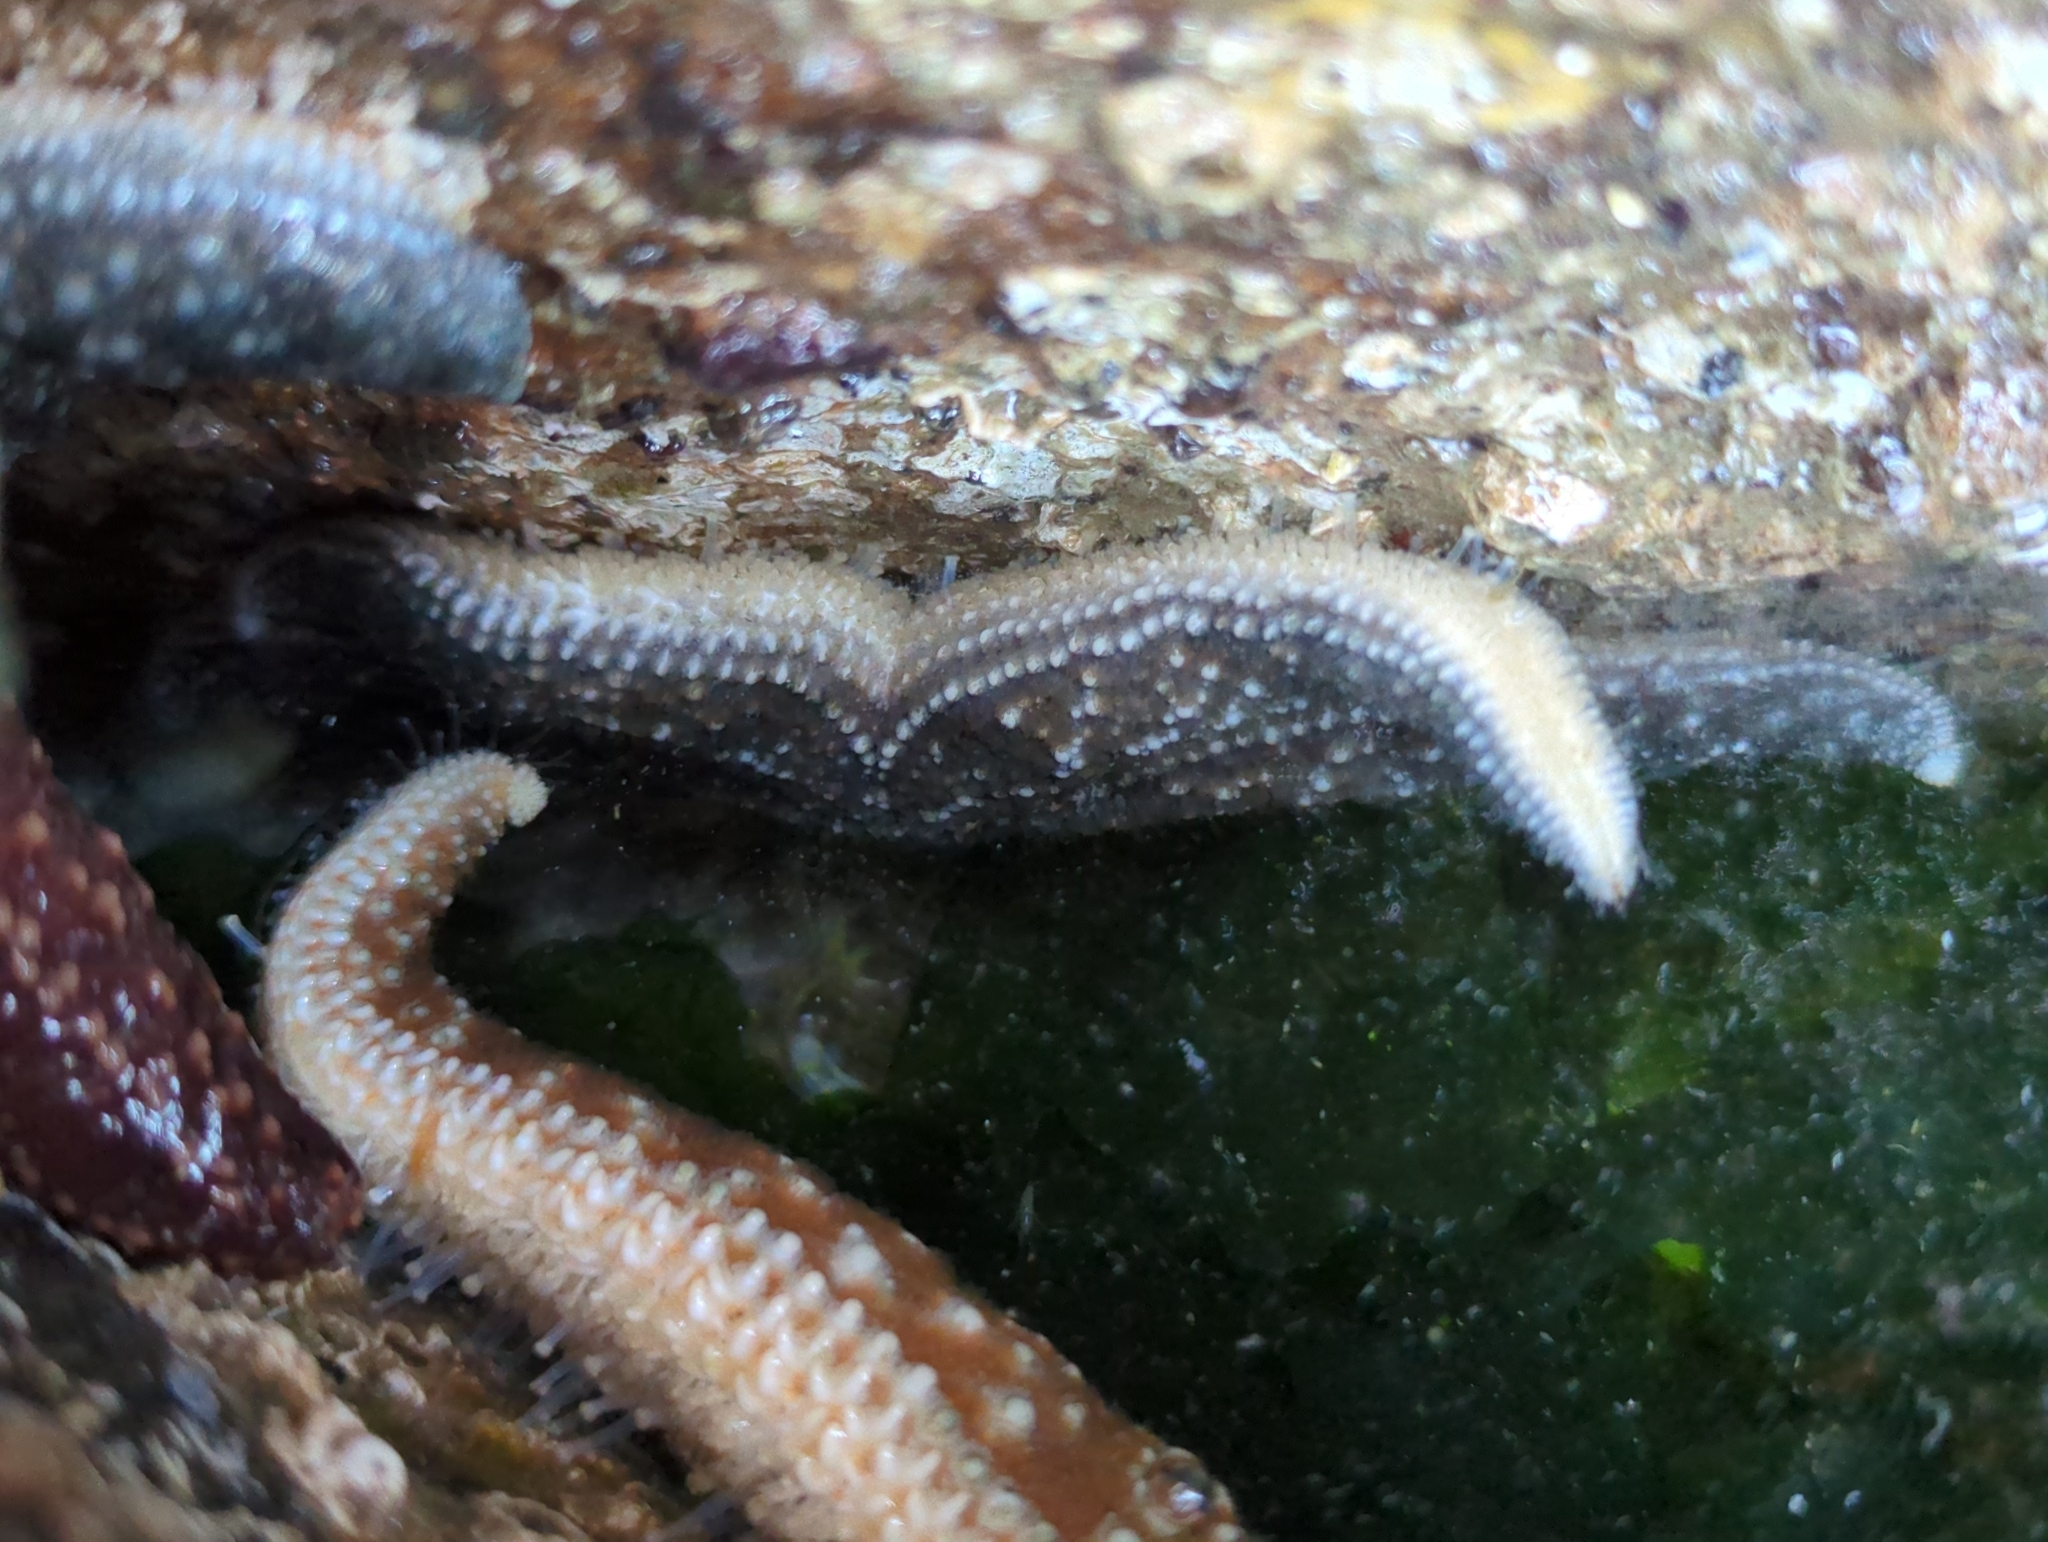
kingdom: Animalia
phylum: Echinodermata
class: Asteroidea
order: Forcipulatida
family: Asteriidae
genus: Evasterias
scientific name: Evasterias troschelii
